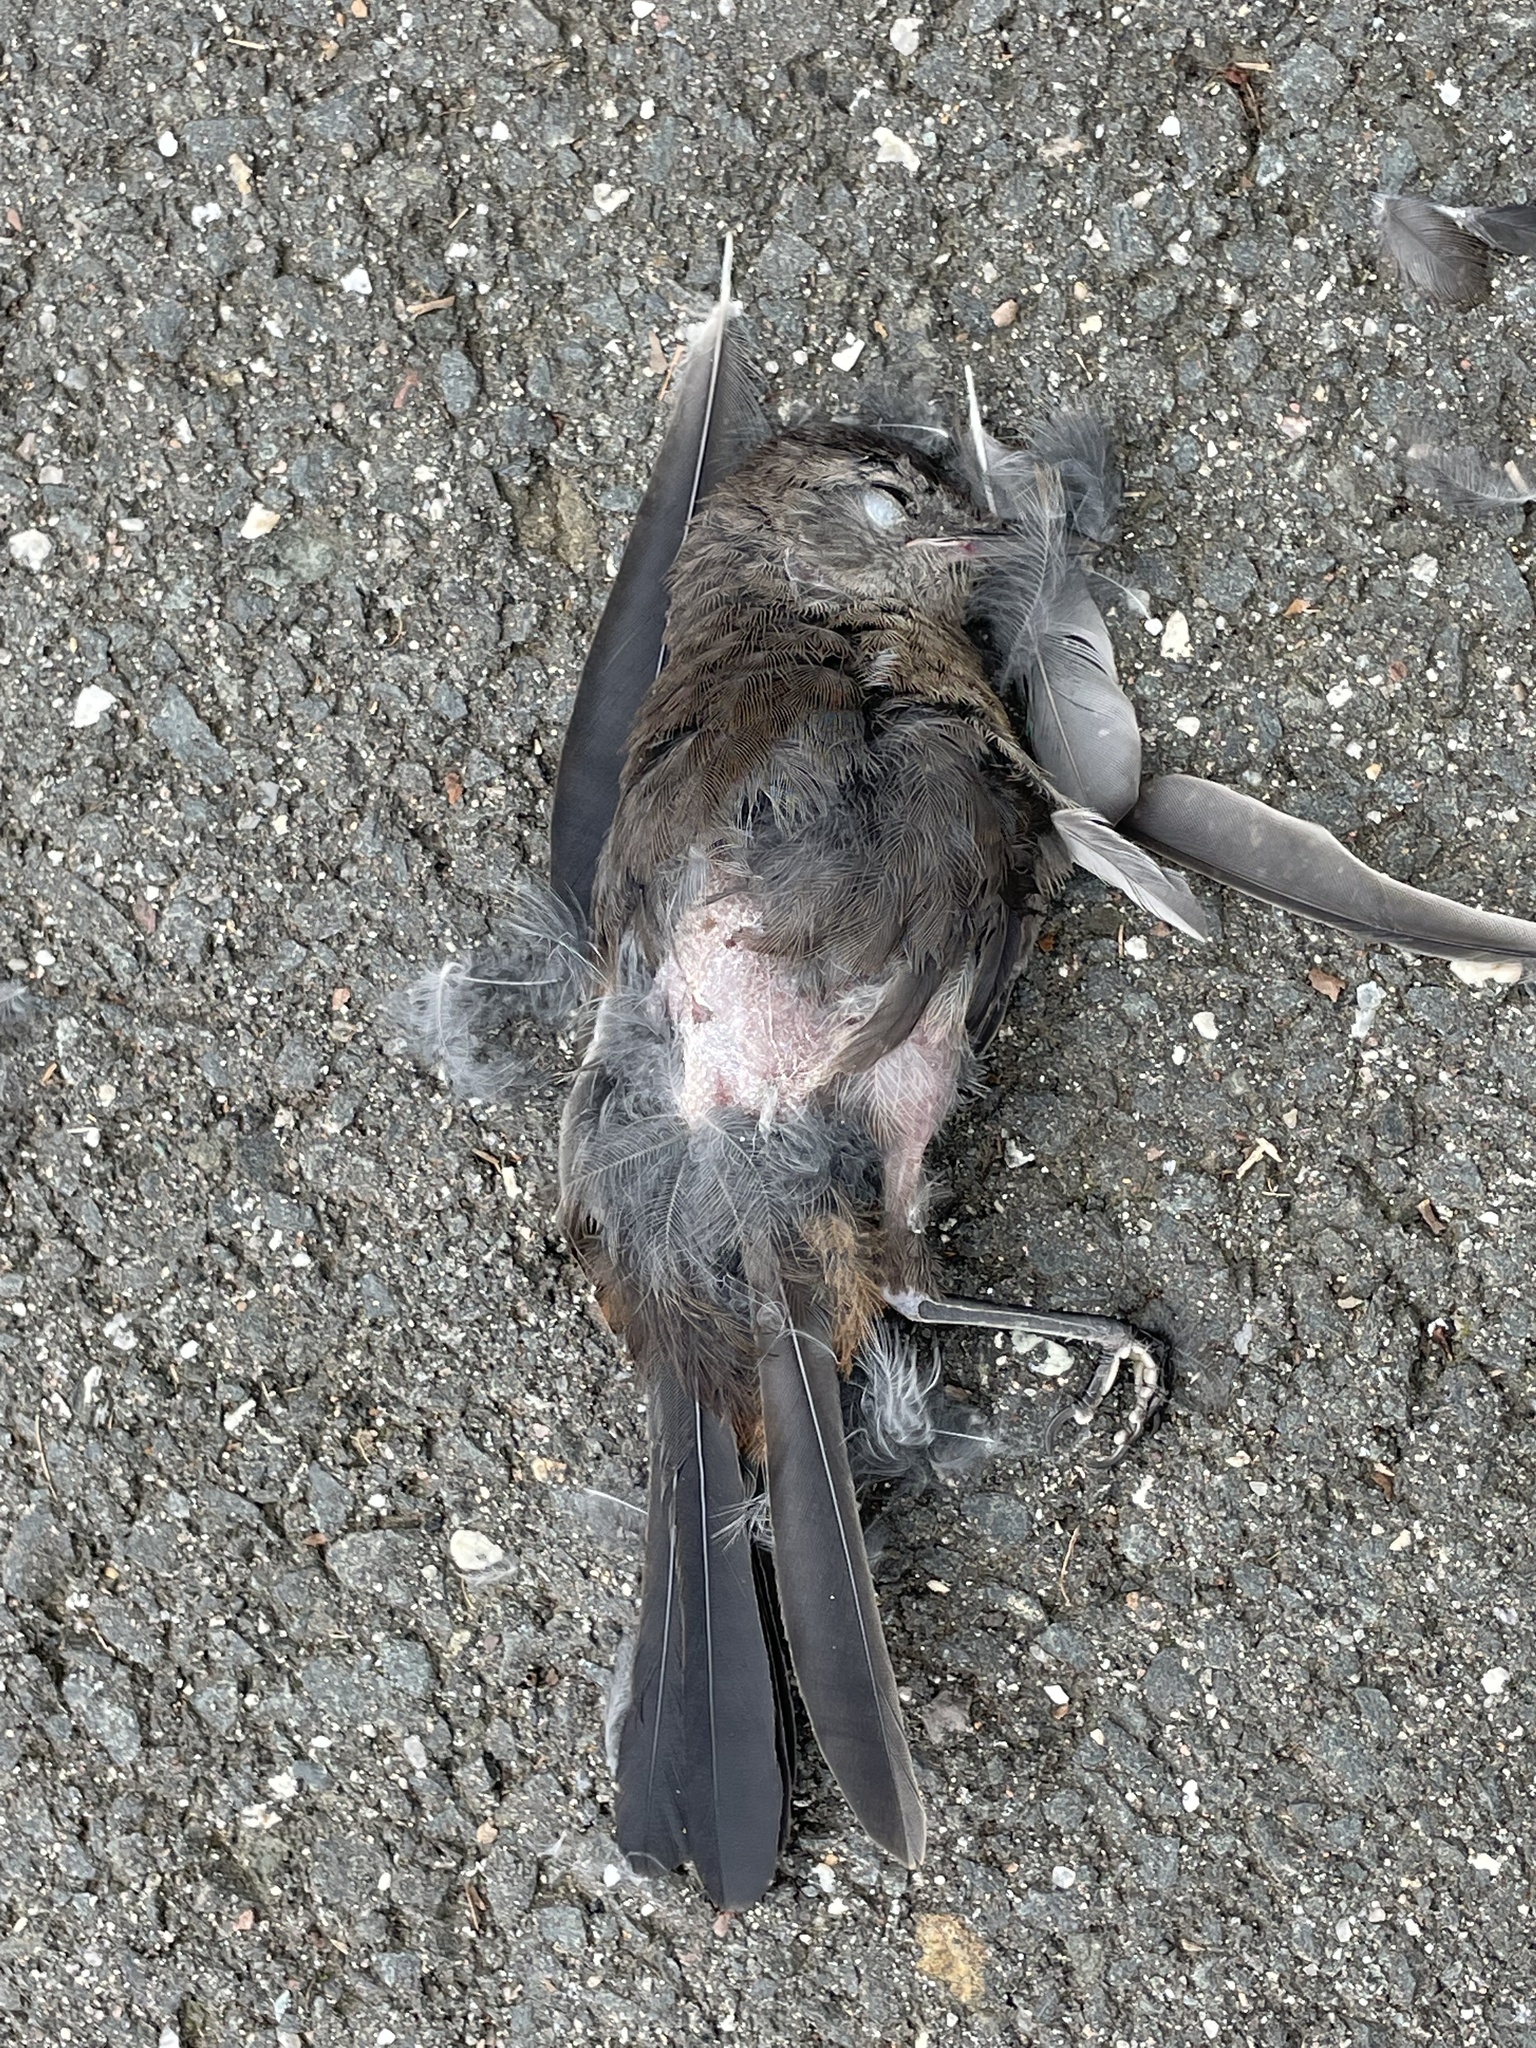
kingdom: Animalia
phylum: Chordata
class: Aves
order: Passeriformes
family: Mimidae
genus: Dumetella
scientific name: Dumetella carolinensis
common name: Gray catbird
